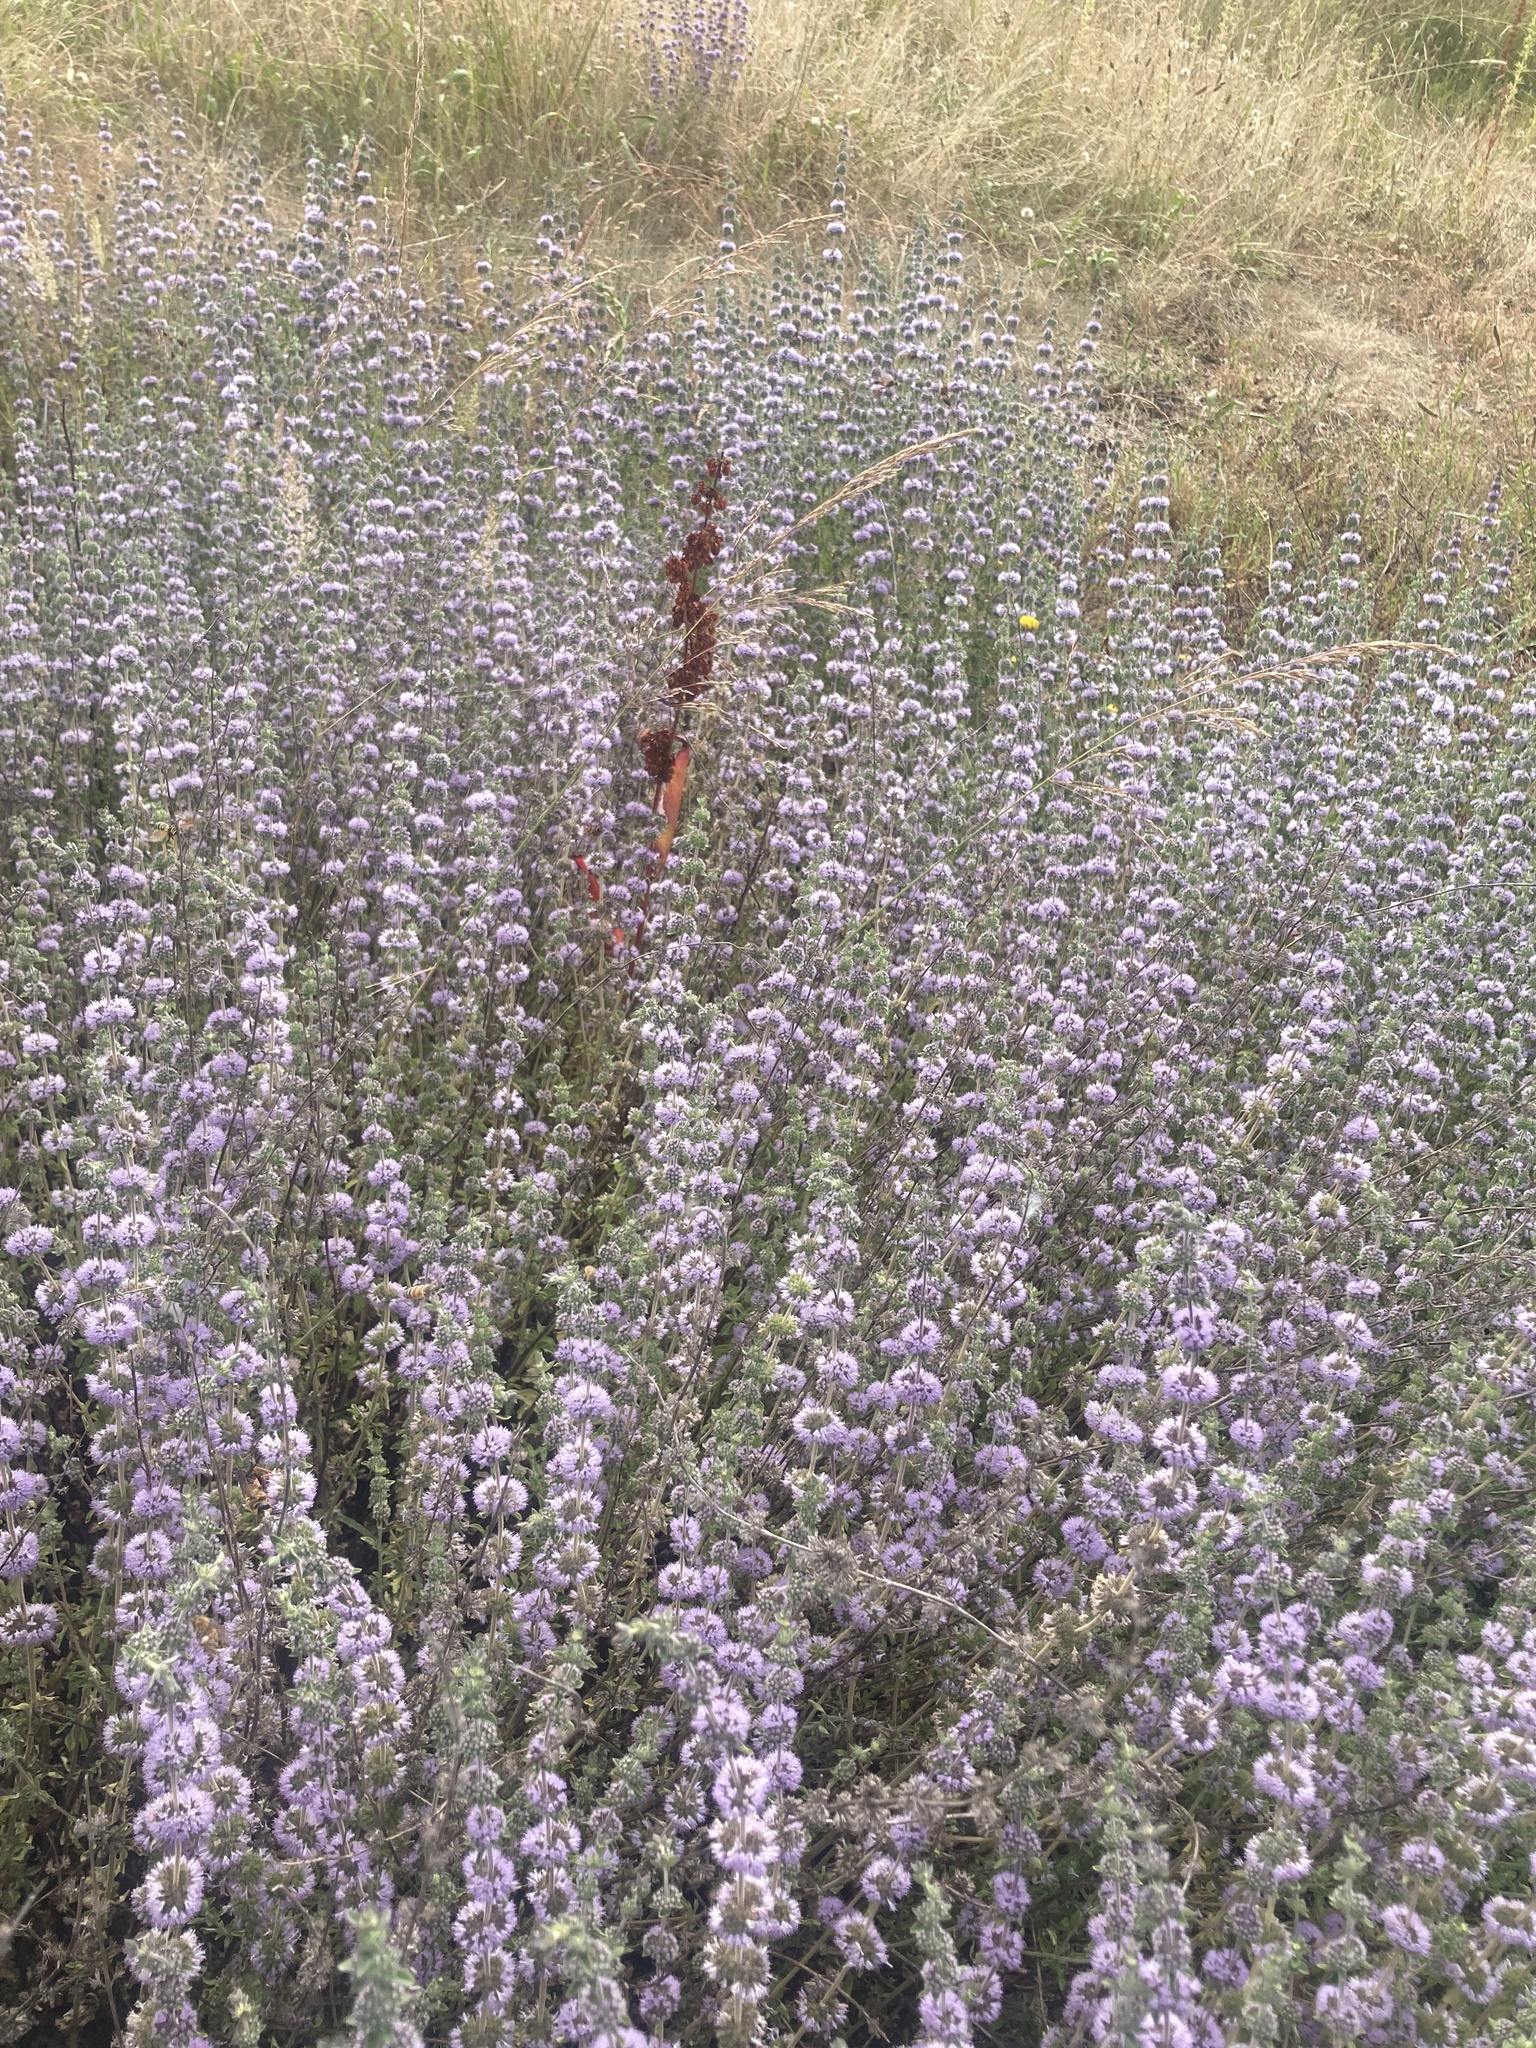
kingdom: Plantae
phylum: Tracheophyta
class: Magnoliopsida
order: Lamiales
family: Lamiaceae
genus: Mentha
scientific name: Mentha pulegium
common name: Pennyroyal
